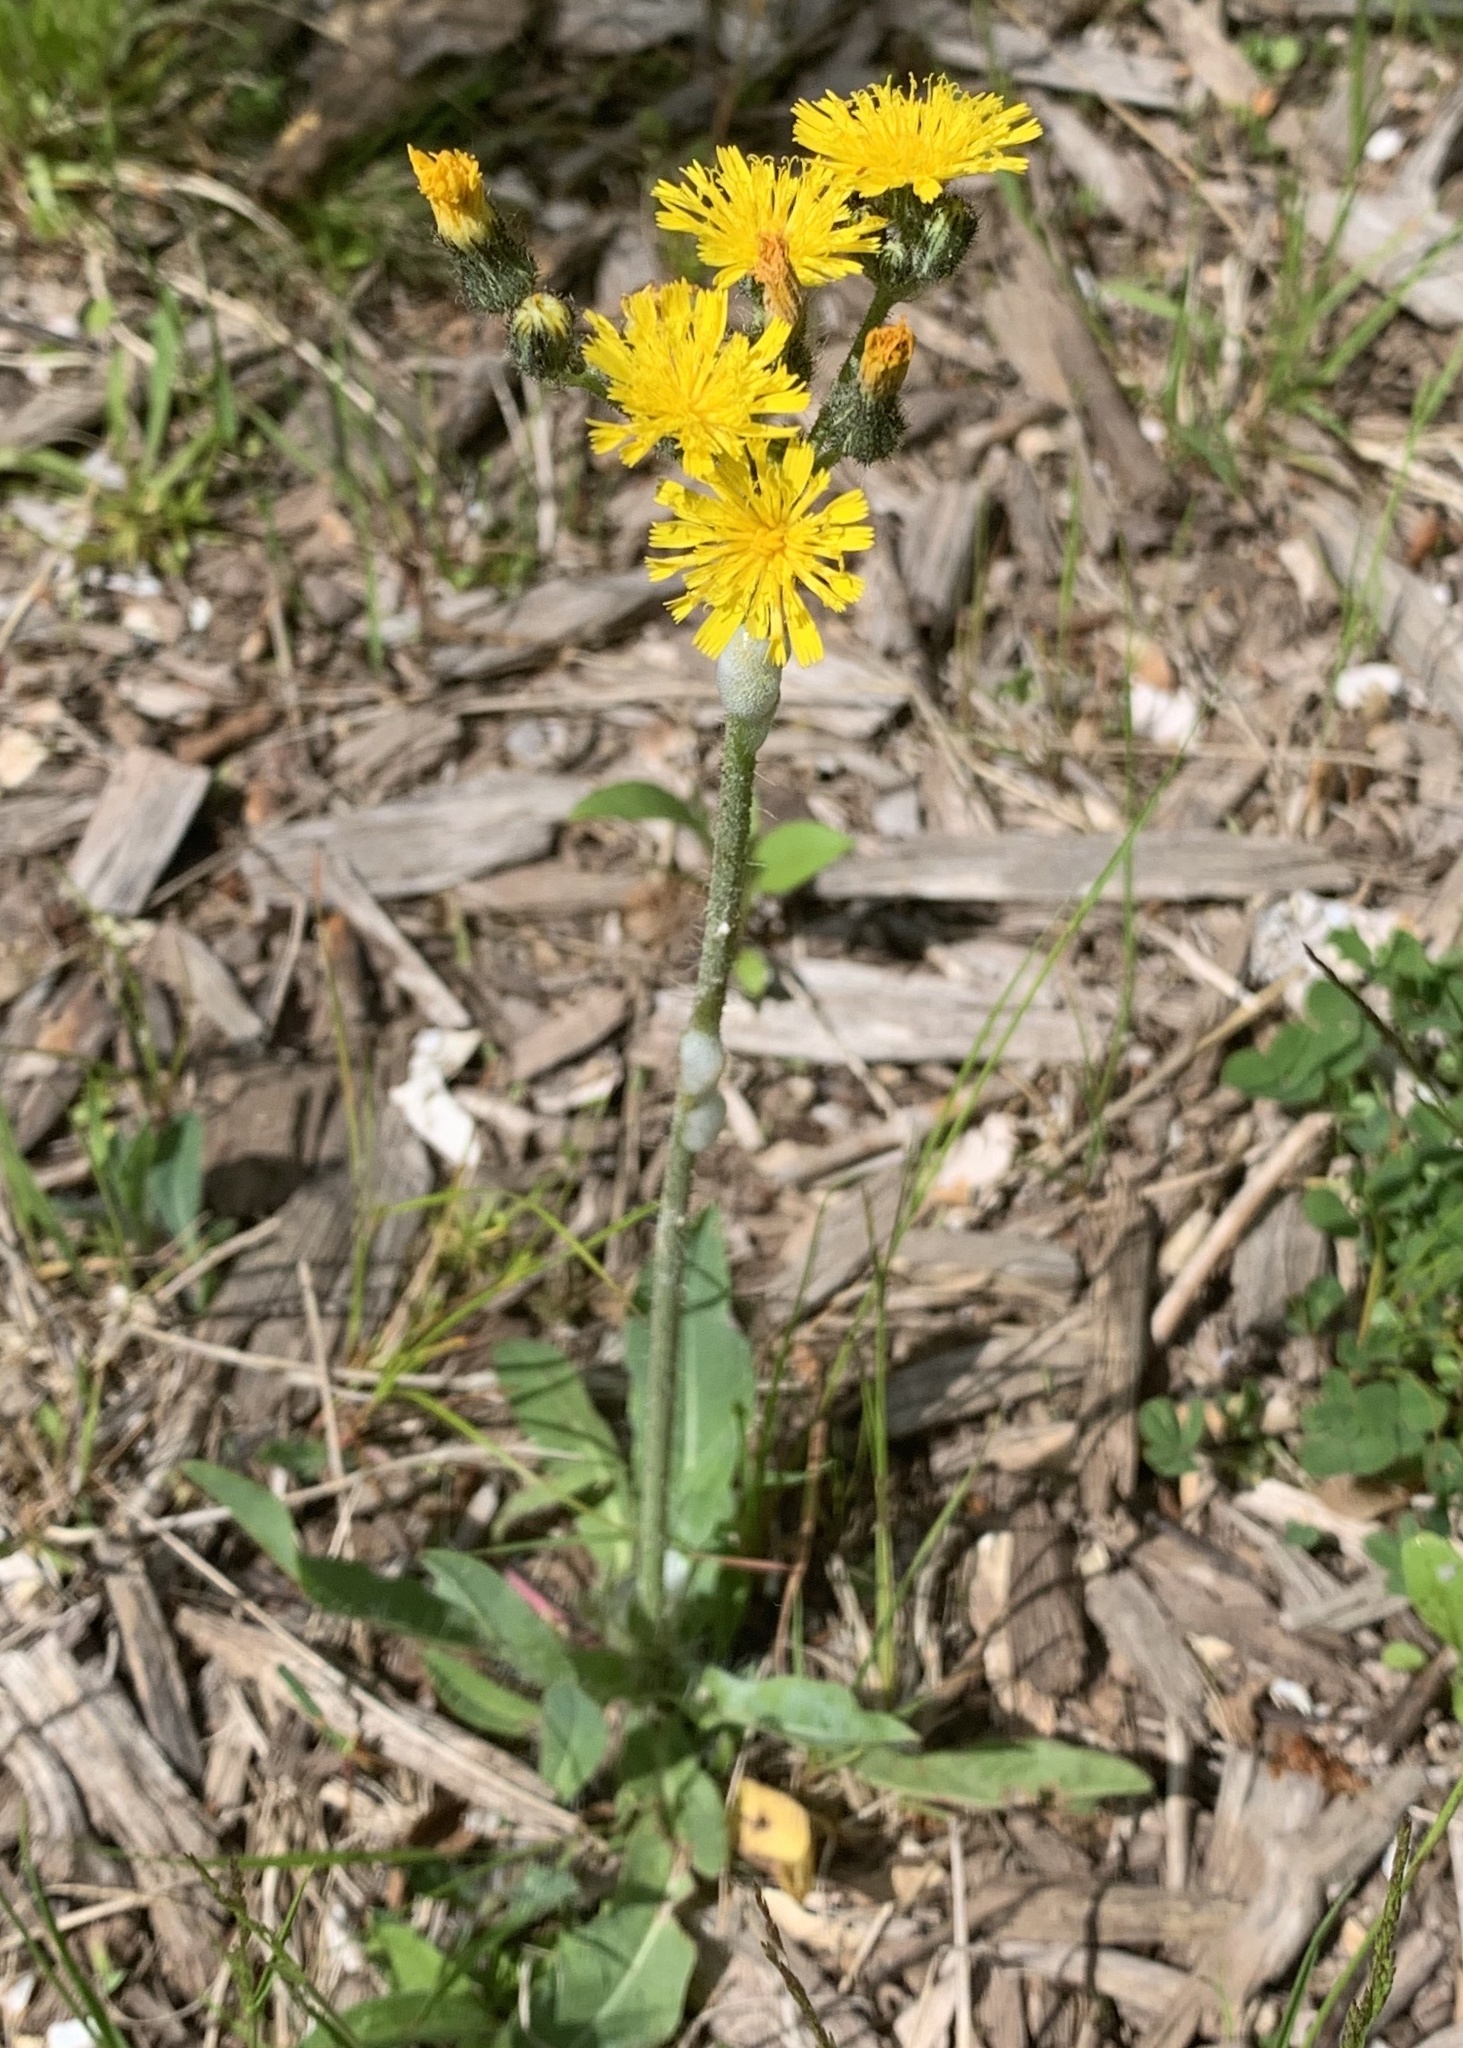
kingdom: Plantae
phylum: Tracheophyta
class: Magnoliopsida
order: Asterales
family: Asteraceae
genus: Pilosella
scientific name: Pilosella caespitosa
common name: Yellow fox-and-cubs
